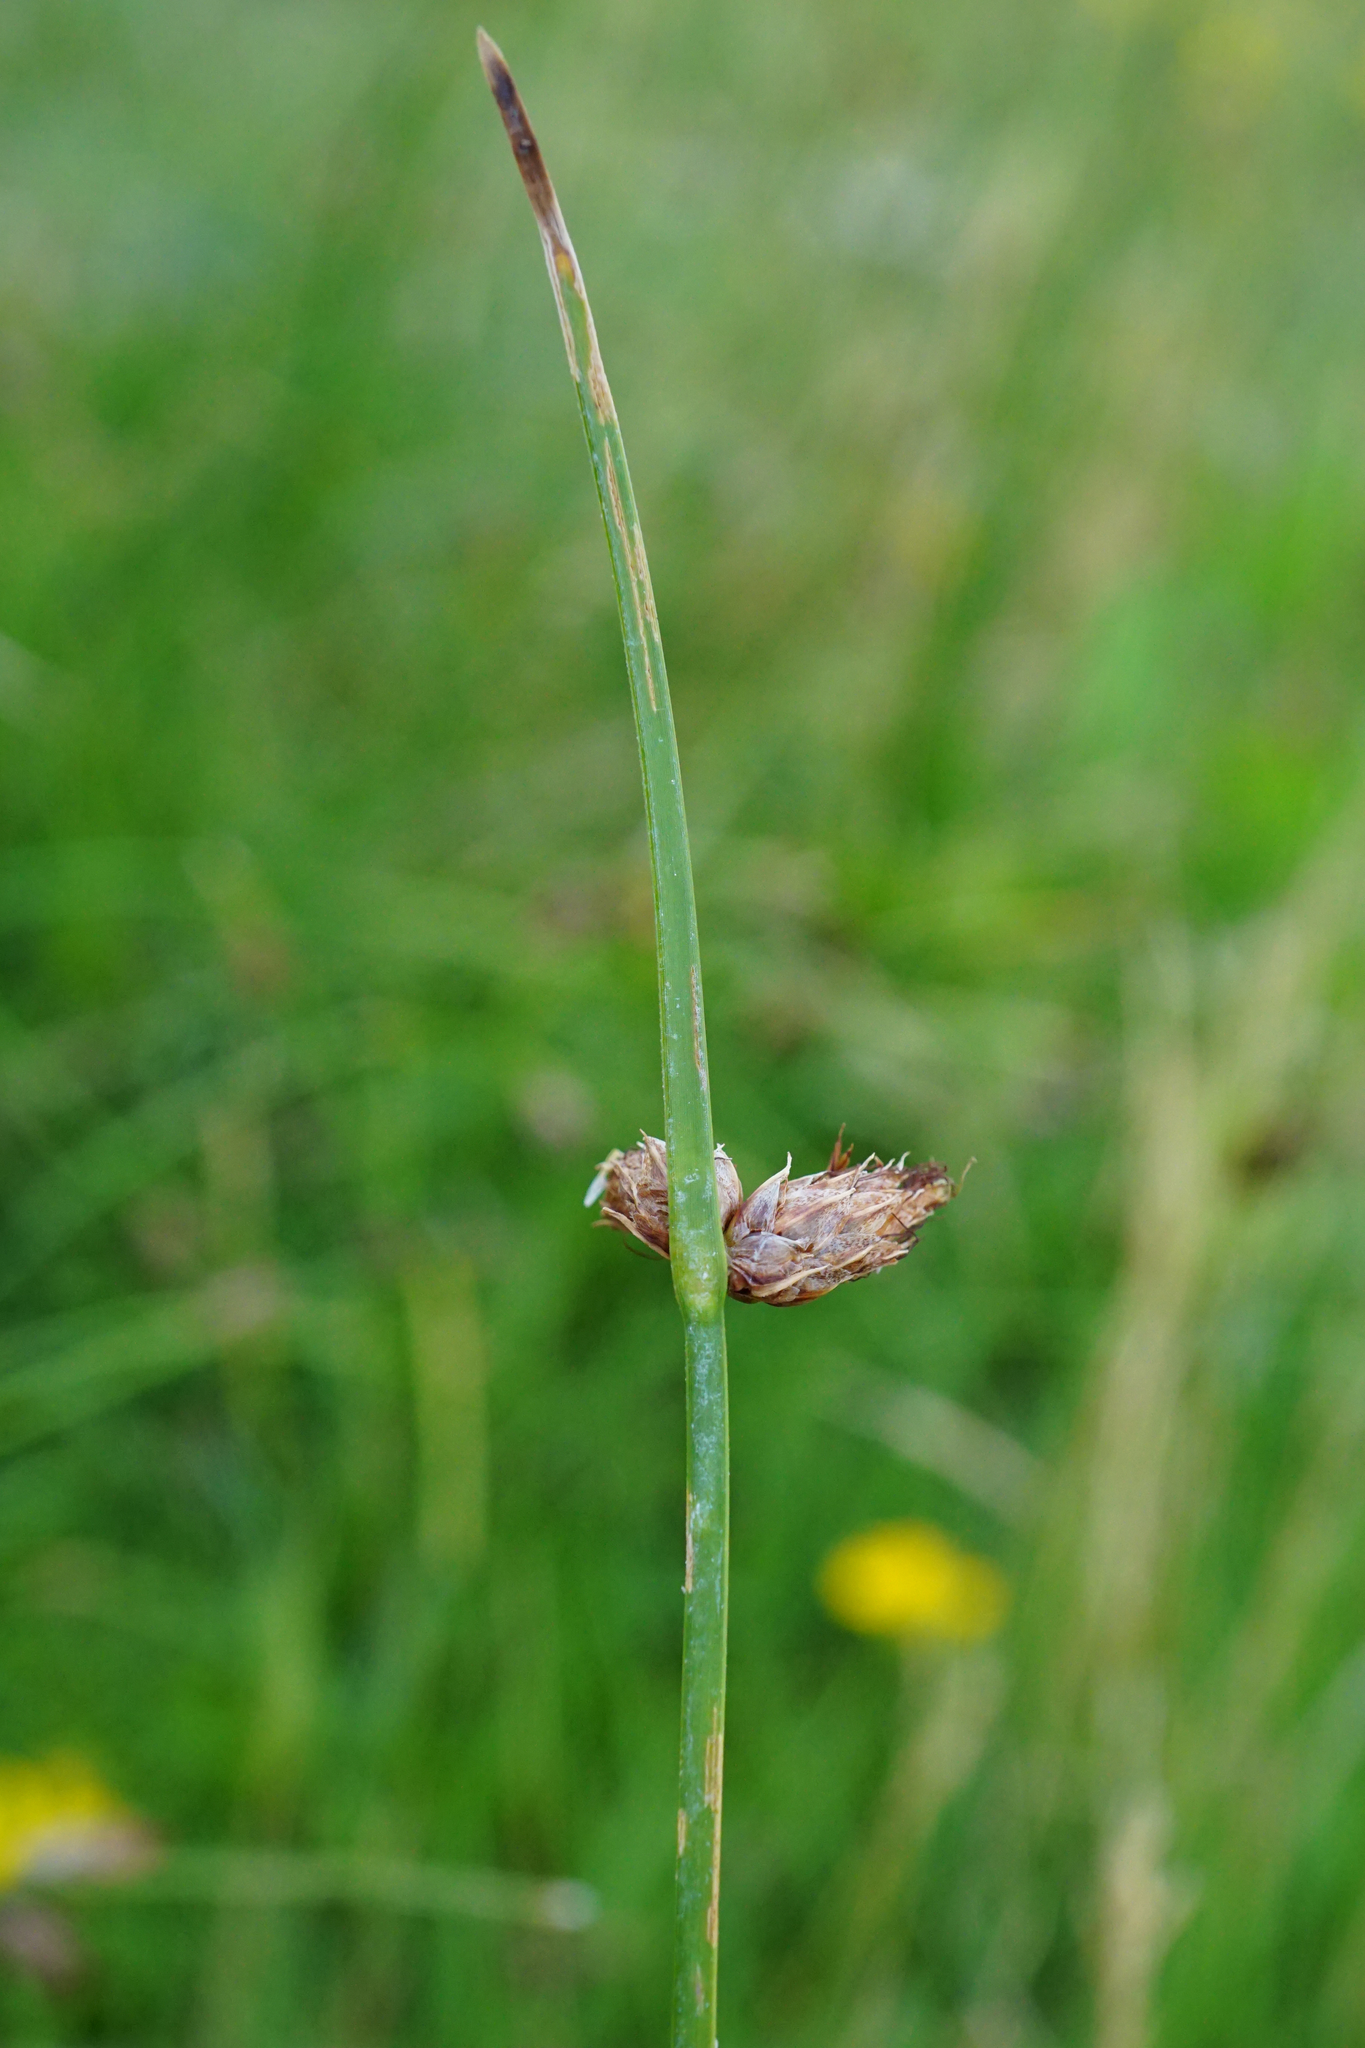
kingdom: Plantae
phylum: Tracheophyta
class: Liliopsida
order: Poales
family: Cyperaceae
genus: Schoenoplectus
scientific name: Schoenoplectus pungens
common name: Sharp club-rush
